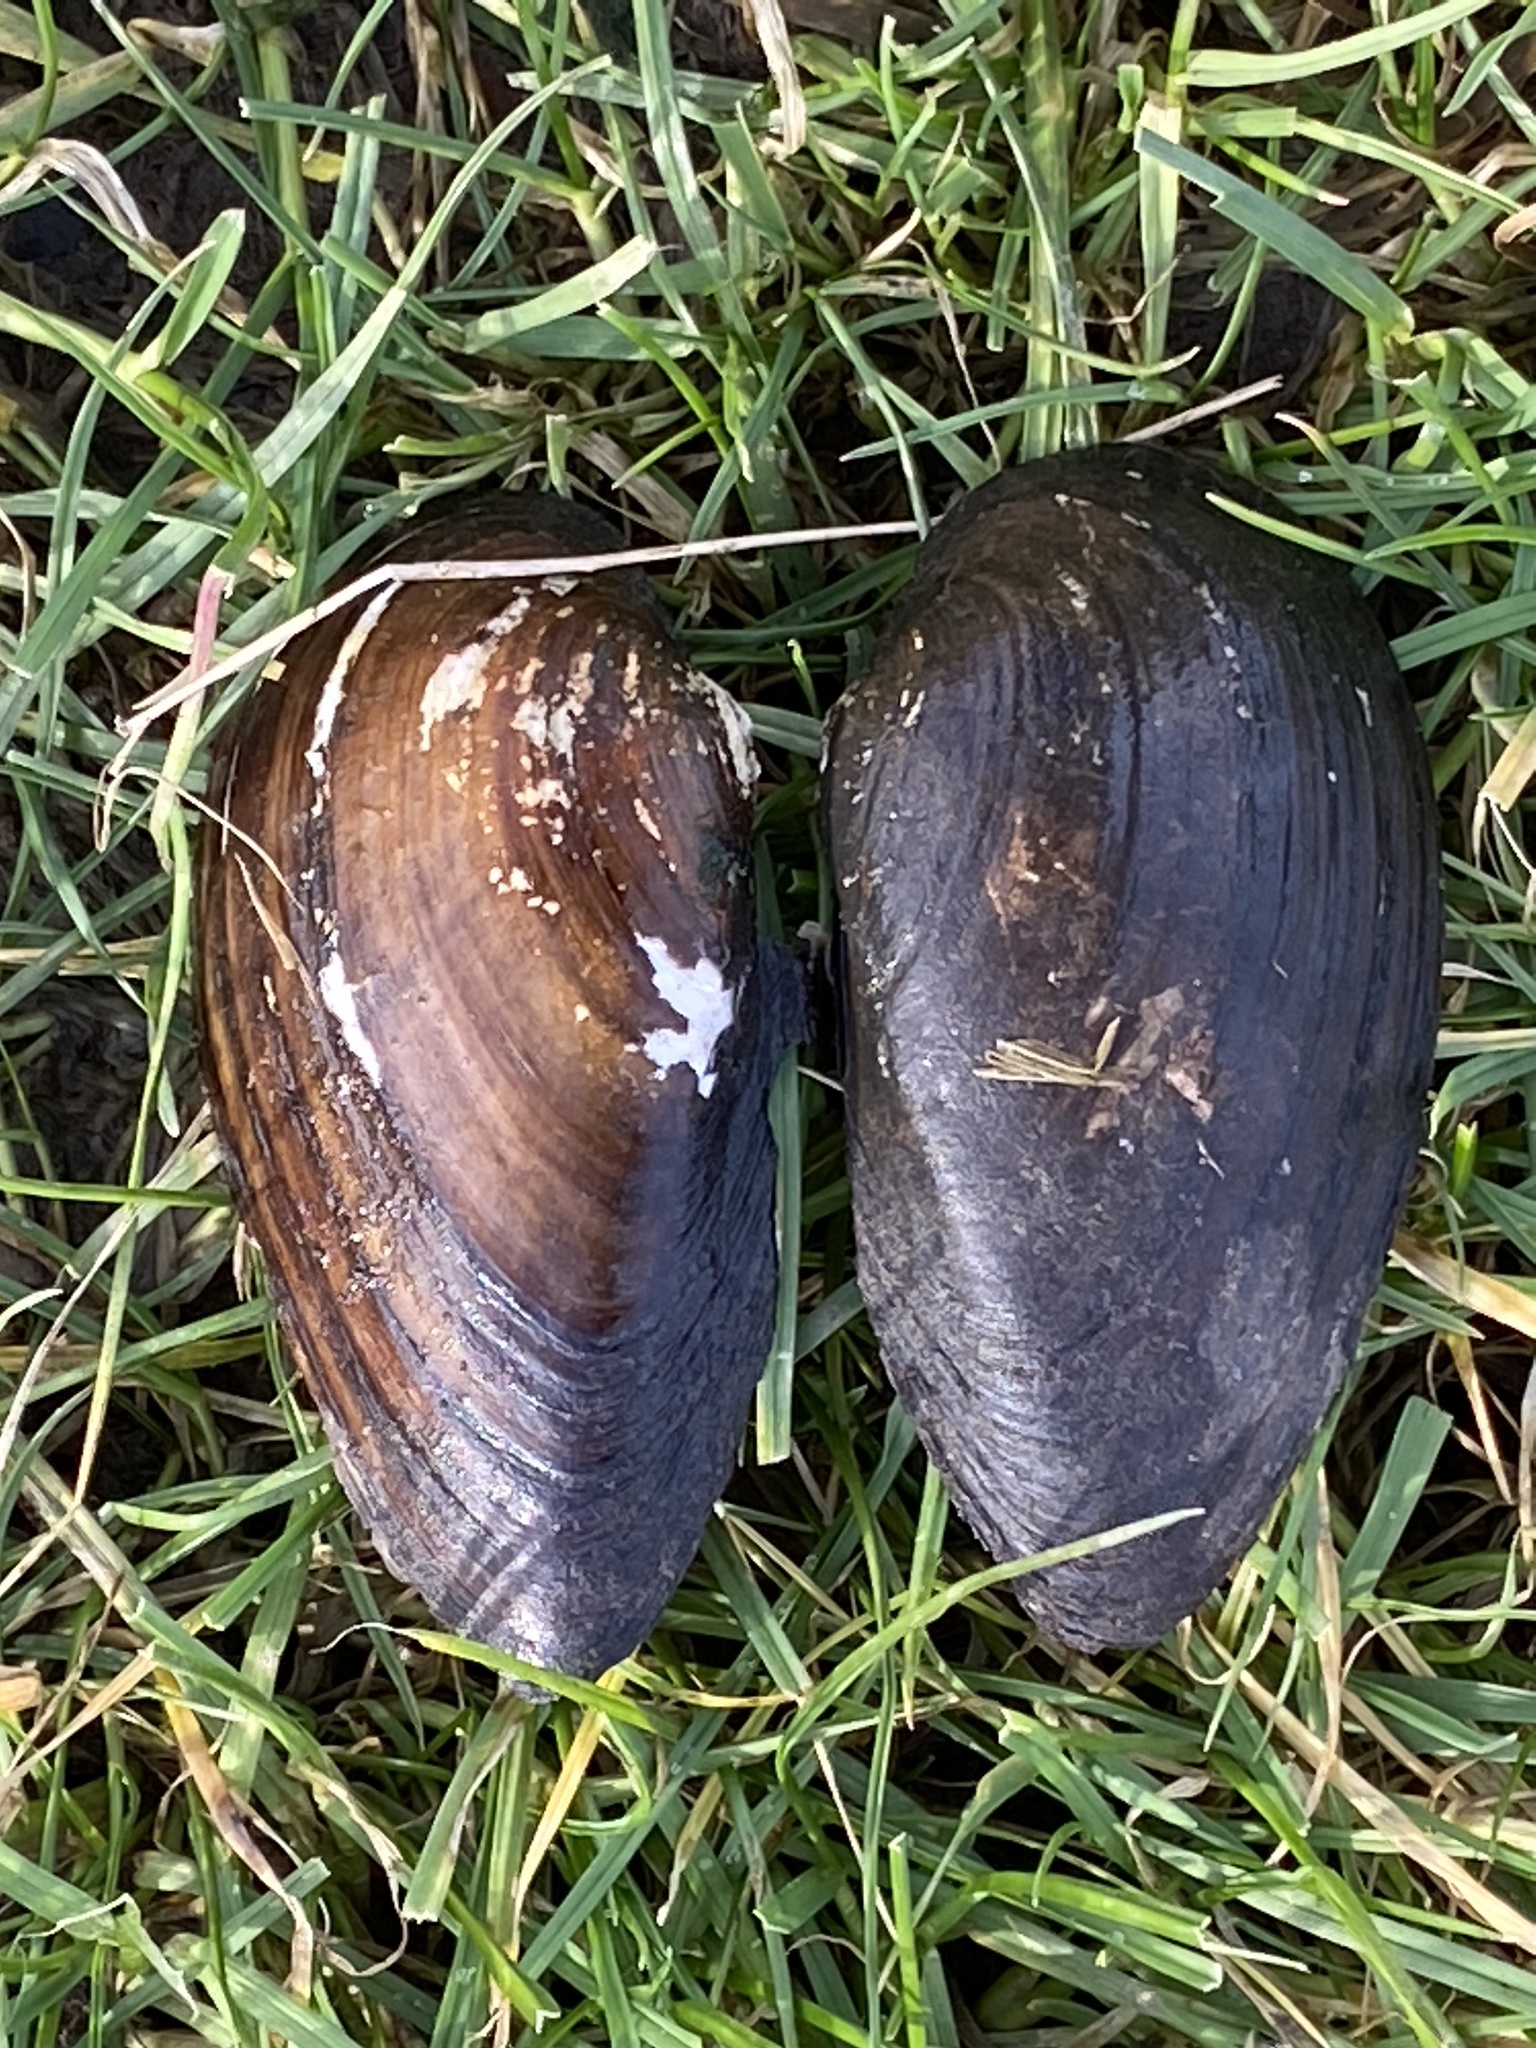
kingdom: Animalia
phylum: Mollusca
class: Bivalvia
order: Unionida
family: Unionidae
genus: Unio
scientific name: Unio tumidus
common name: Swollen river mussel
